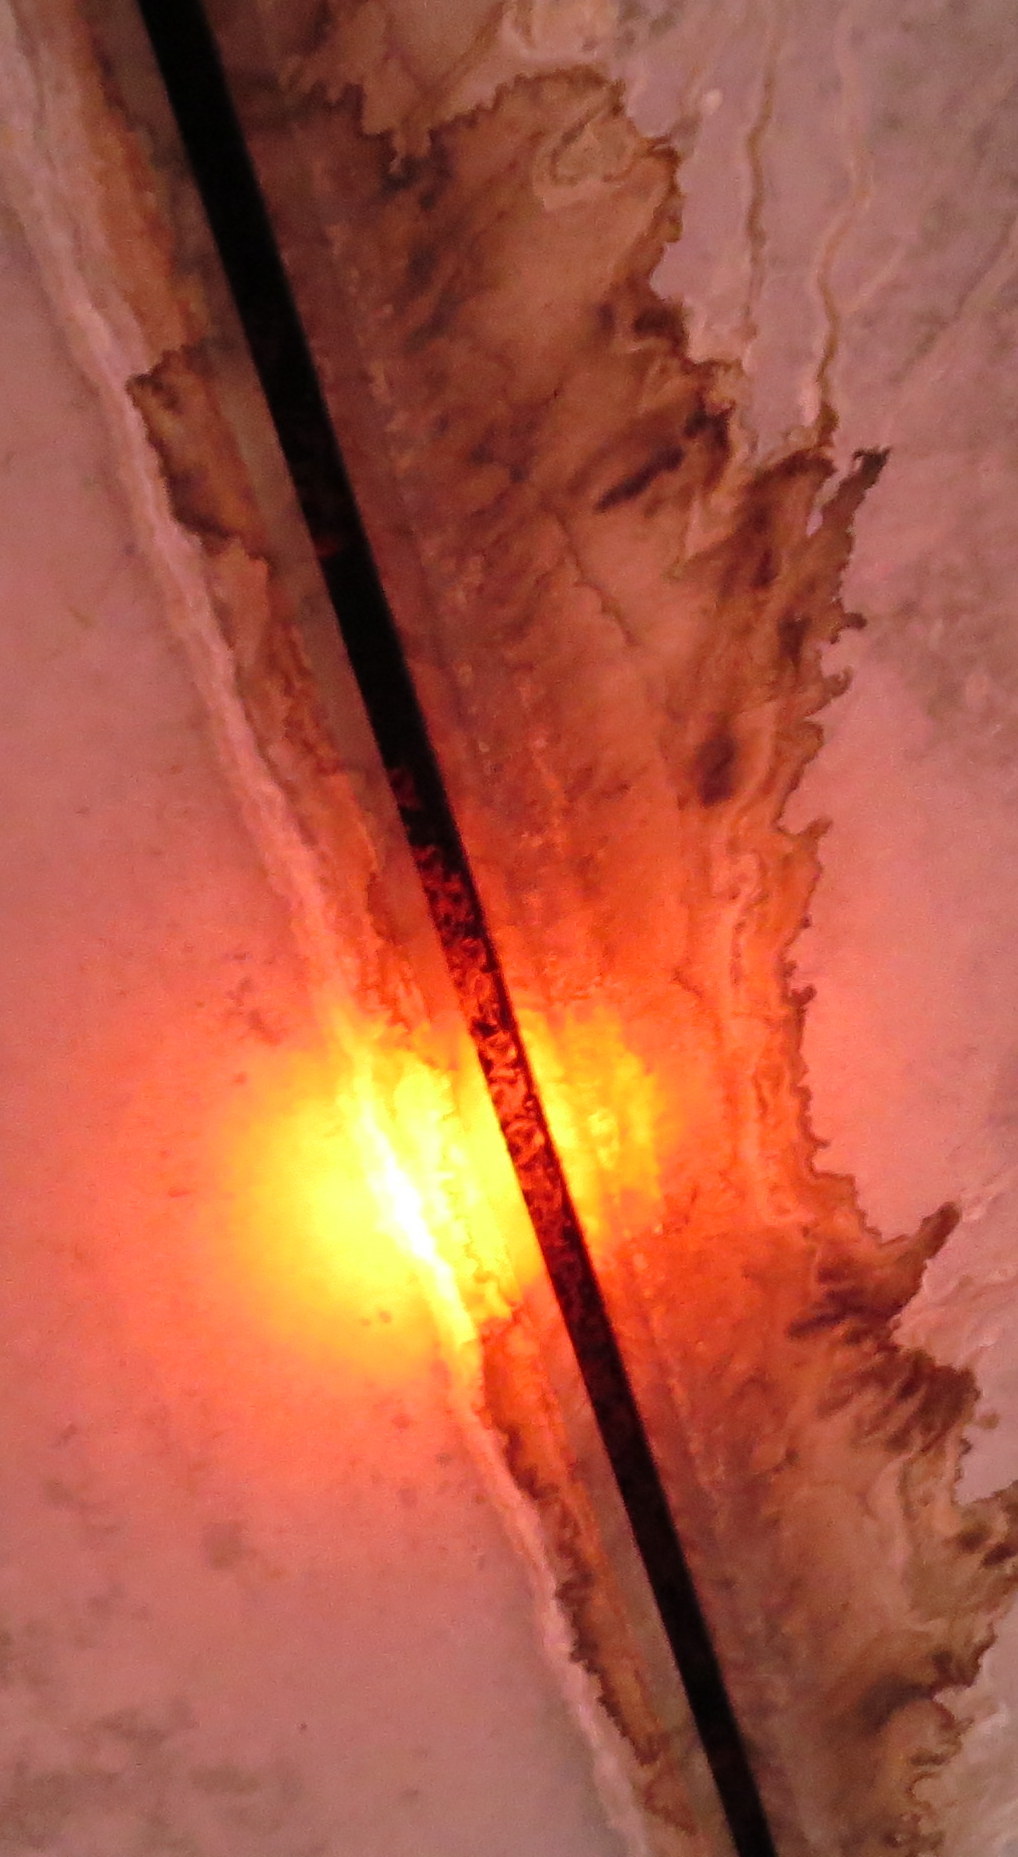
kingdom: Animalia
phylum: Chordata
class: Mammalia
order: Chiroptera
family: Molossidae
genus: Tadarida
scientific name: Tadarida brasiliensis
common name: Mexican free-tailed bat
